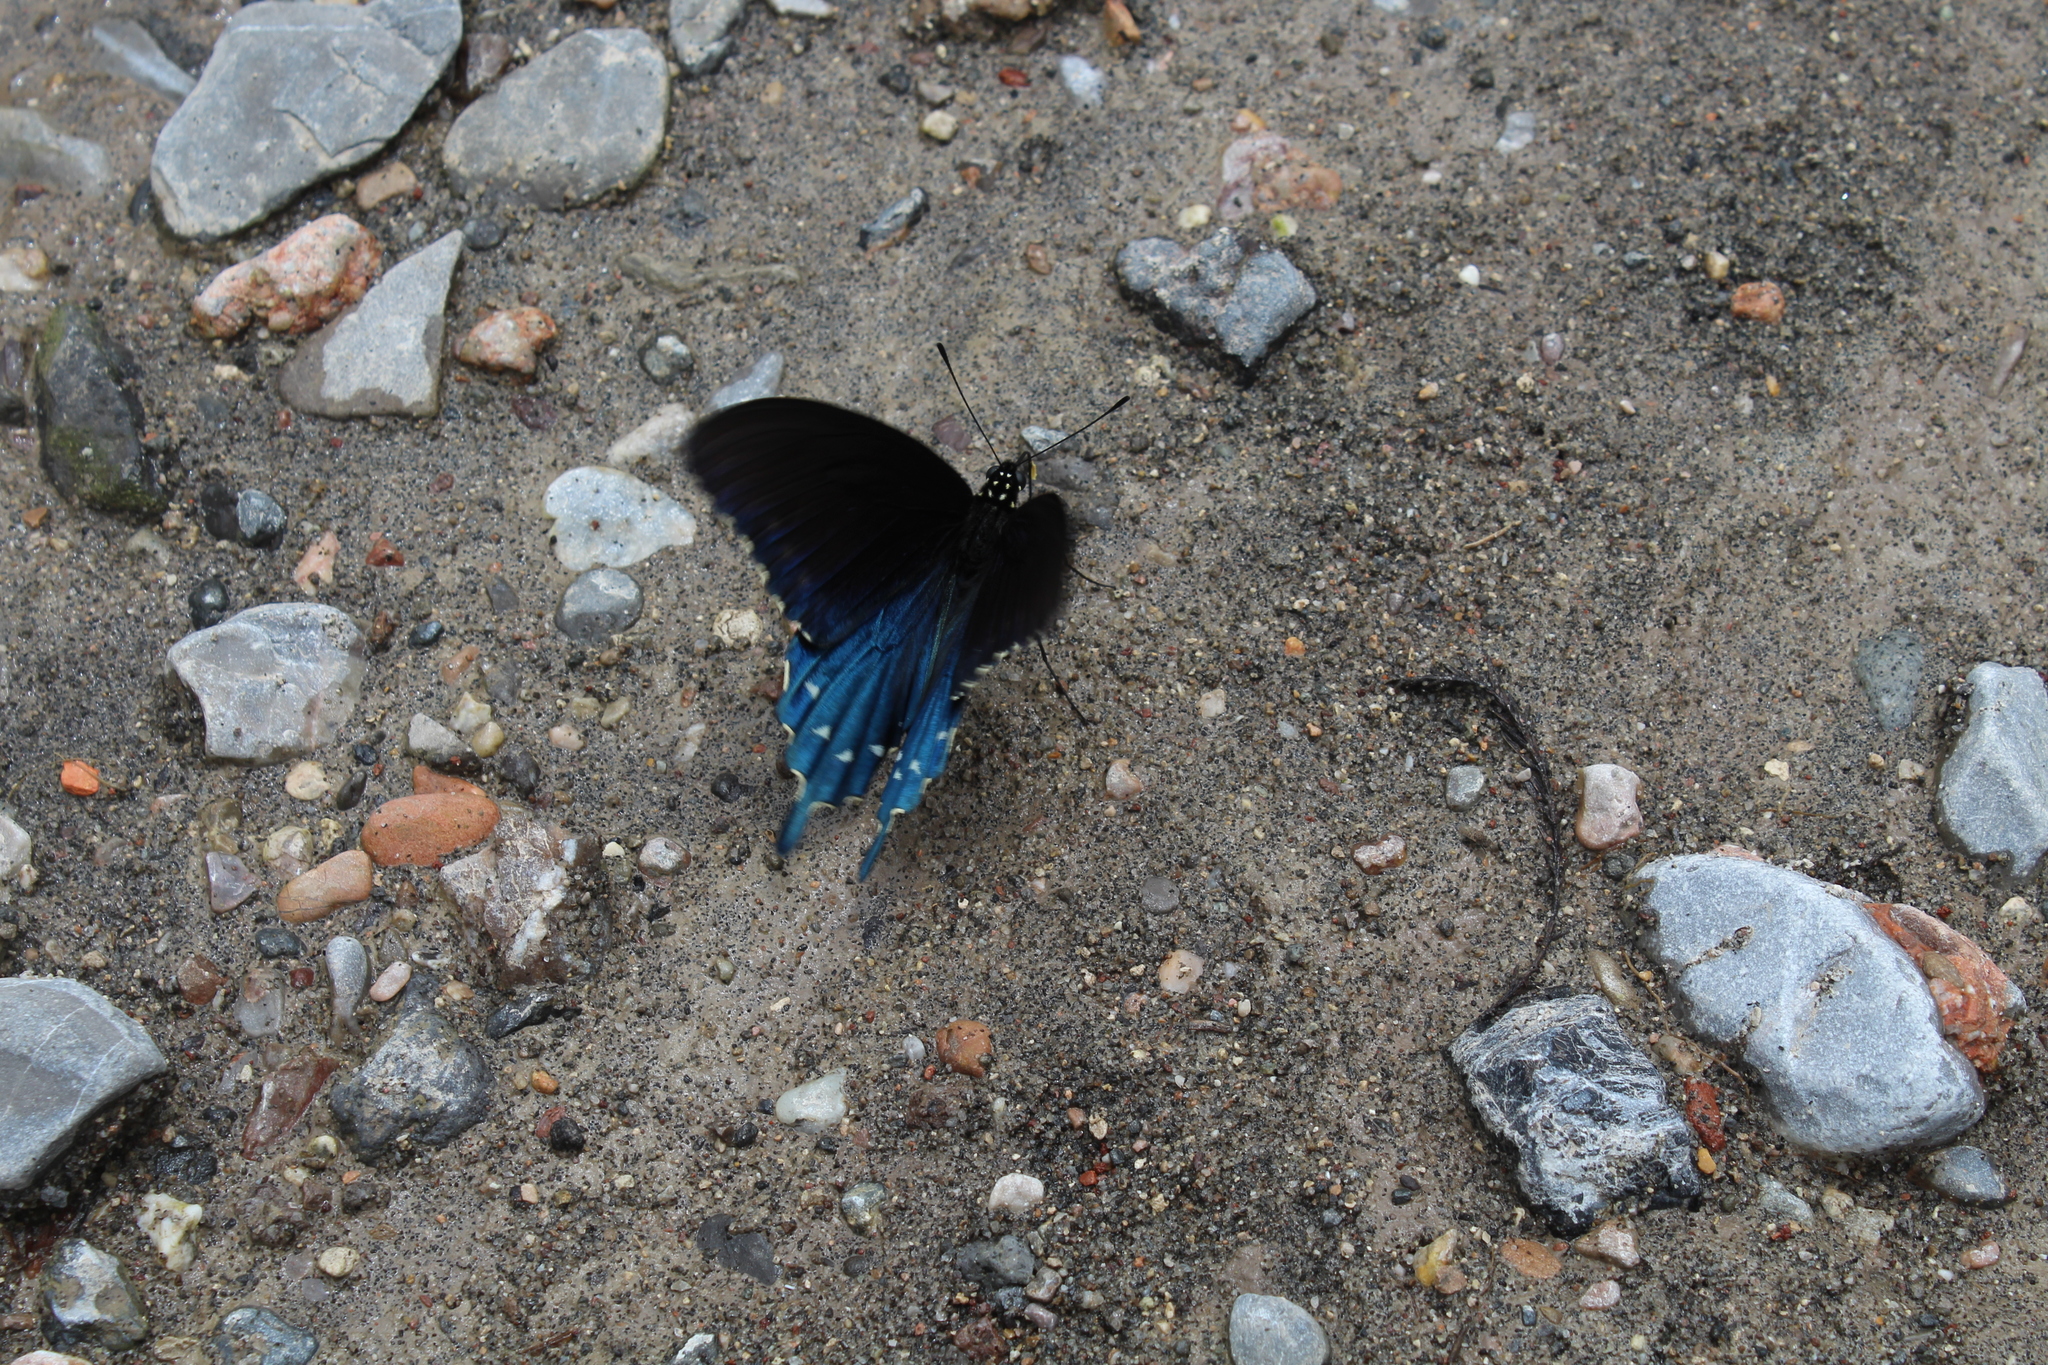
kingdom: Animalia
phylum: Arthropoda
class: Insecta
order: Lepidoptera
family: Papilionidae
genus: Battus
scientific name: Battus philenor
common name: Pipevine swallowtail
